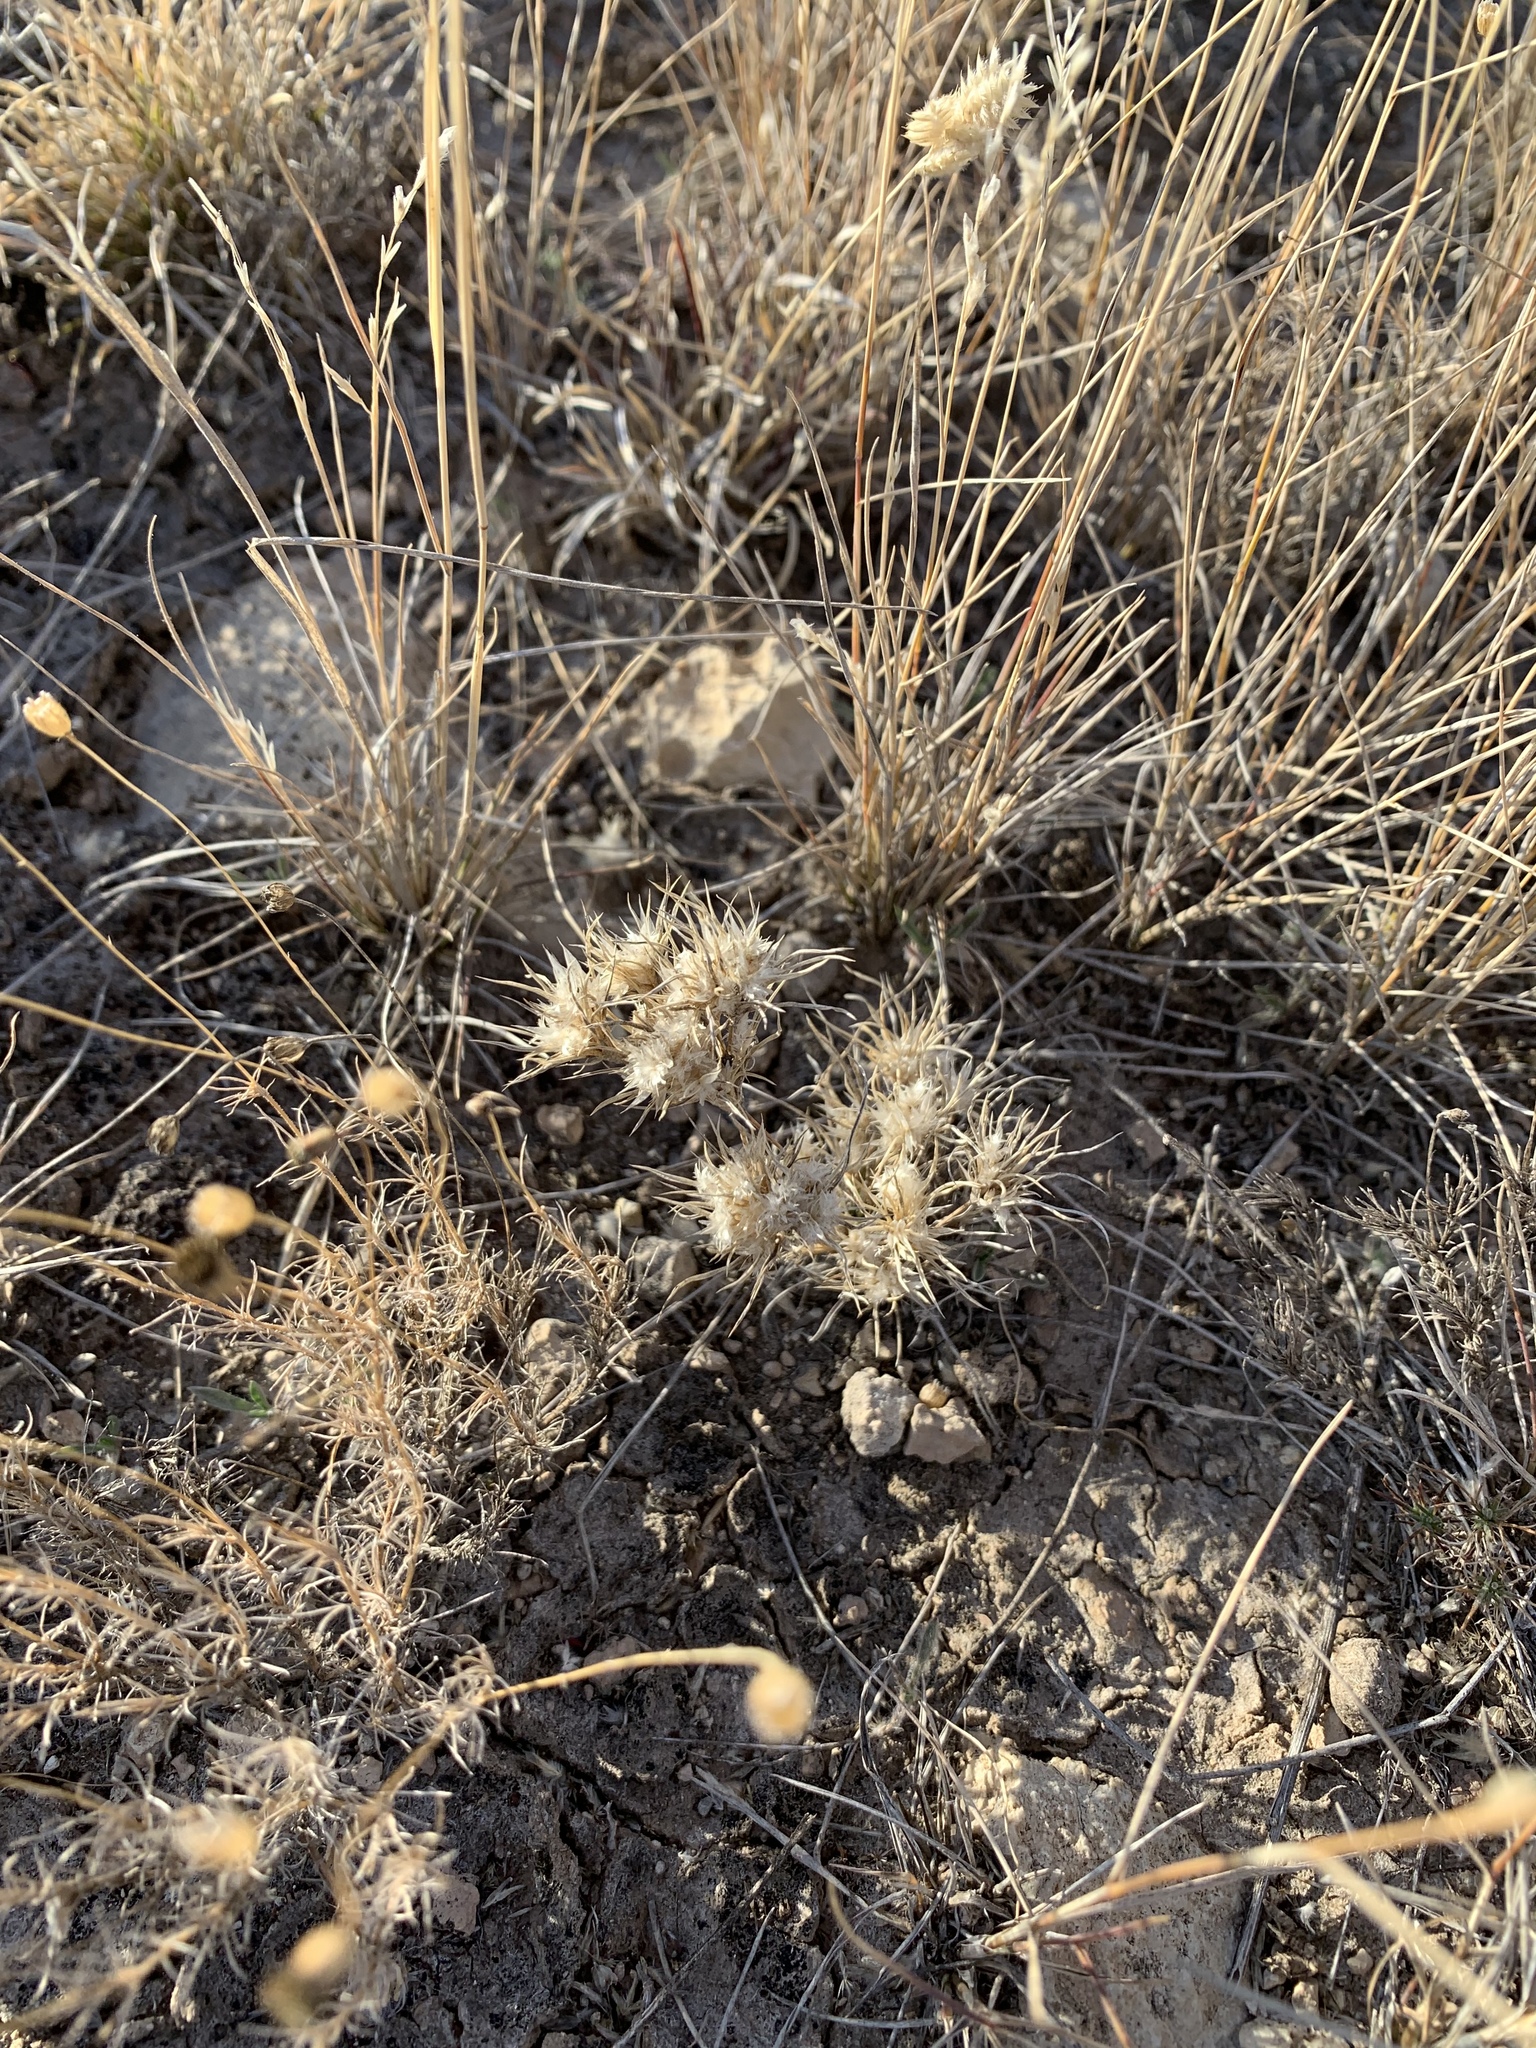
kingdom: Plantae
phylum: Tracheophyta
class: Liliopsida
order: Poales
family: Poaceae
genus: Dasyochloa
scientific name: Dasyochloa pulchella
